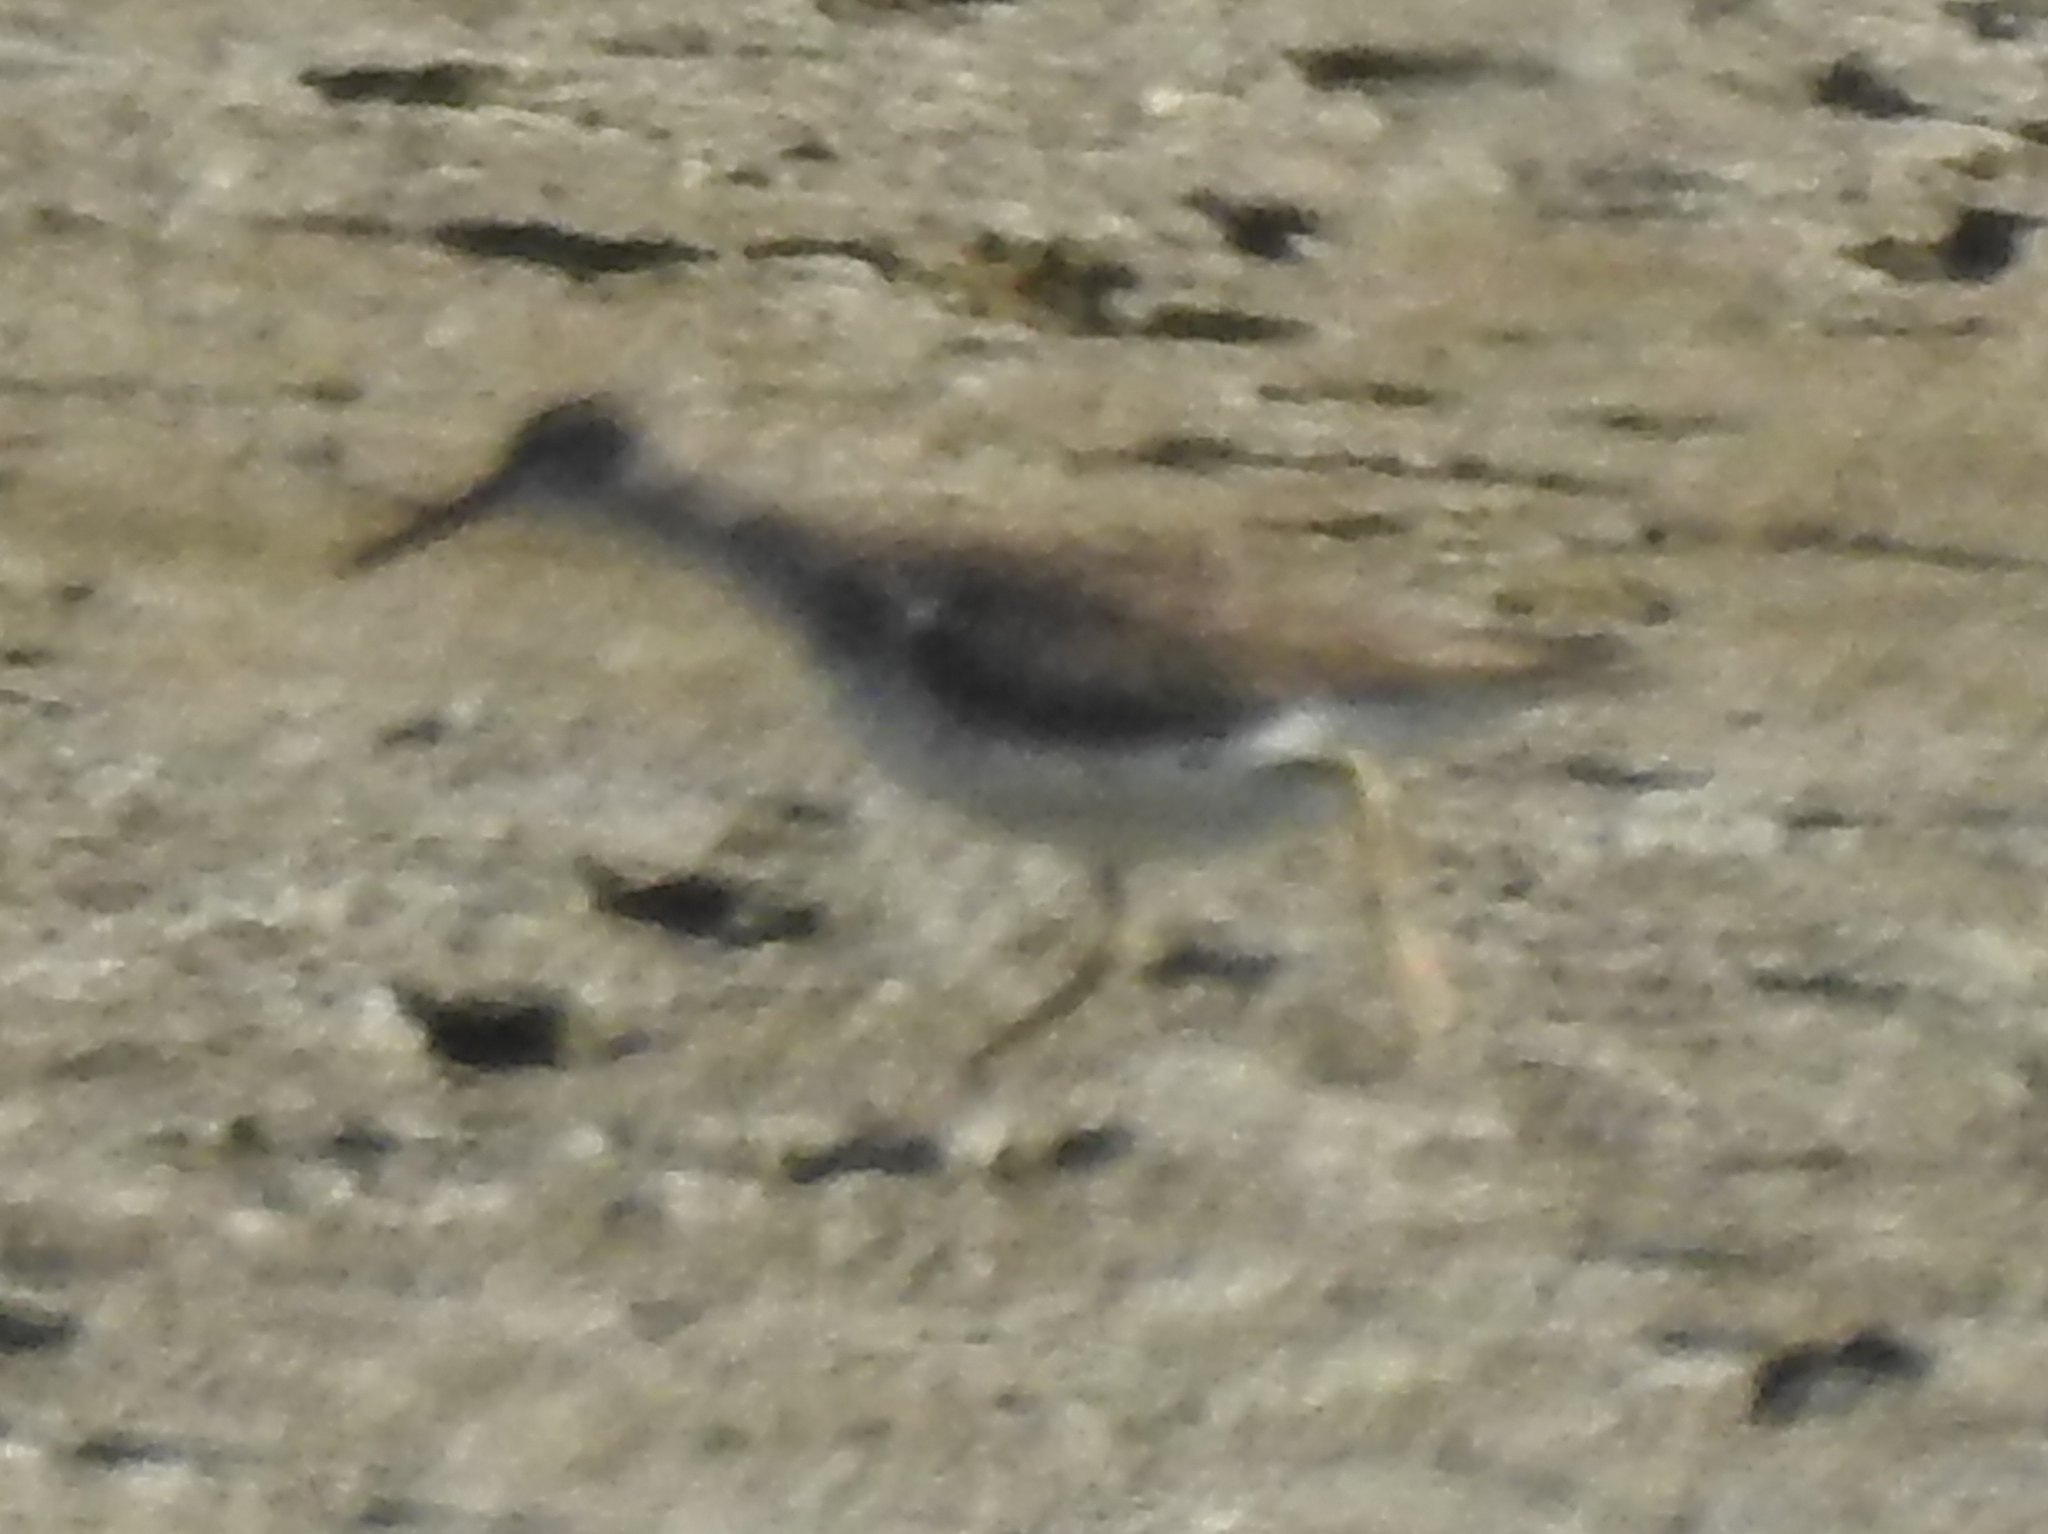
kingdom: Animalia
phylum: Chordata
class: Aves
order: Charadriiformes
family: Scolopacidae
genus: Actitis
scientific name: Actitis macularius
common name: Spotted sandpiper
